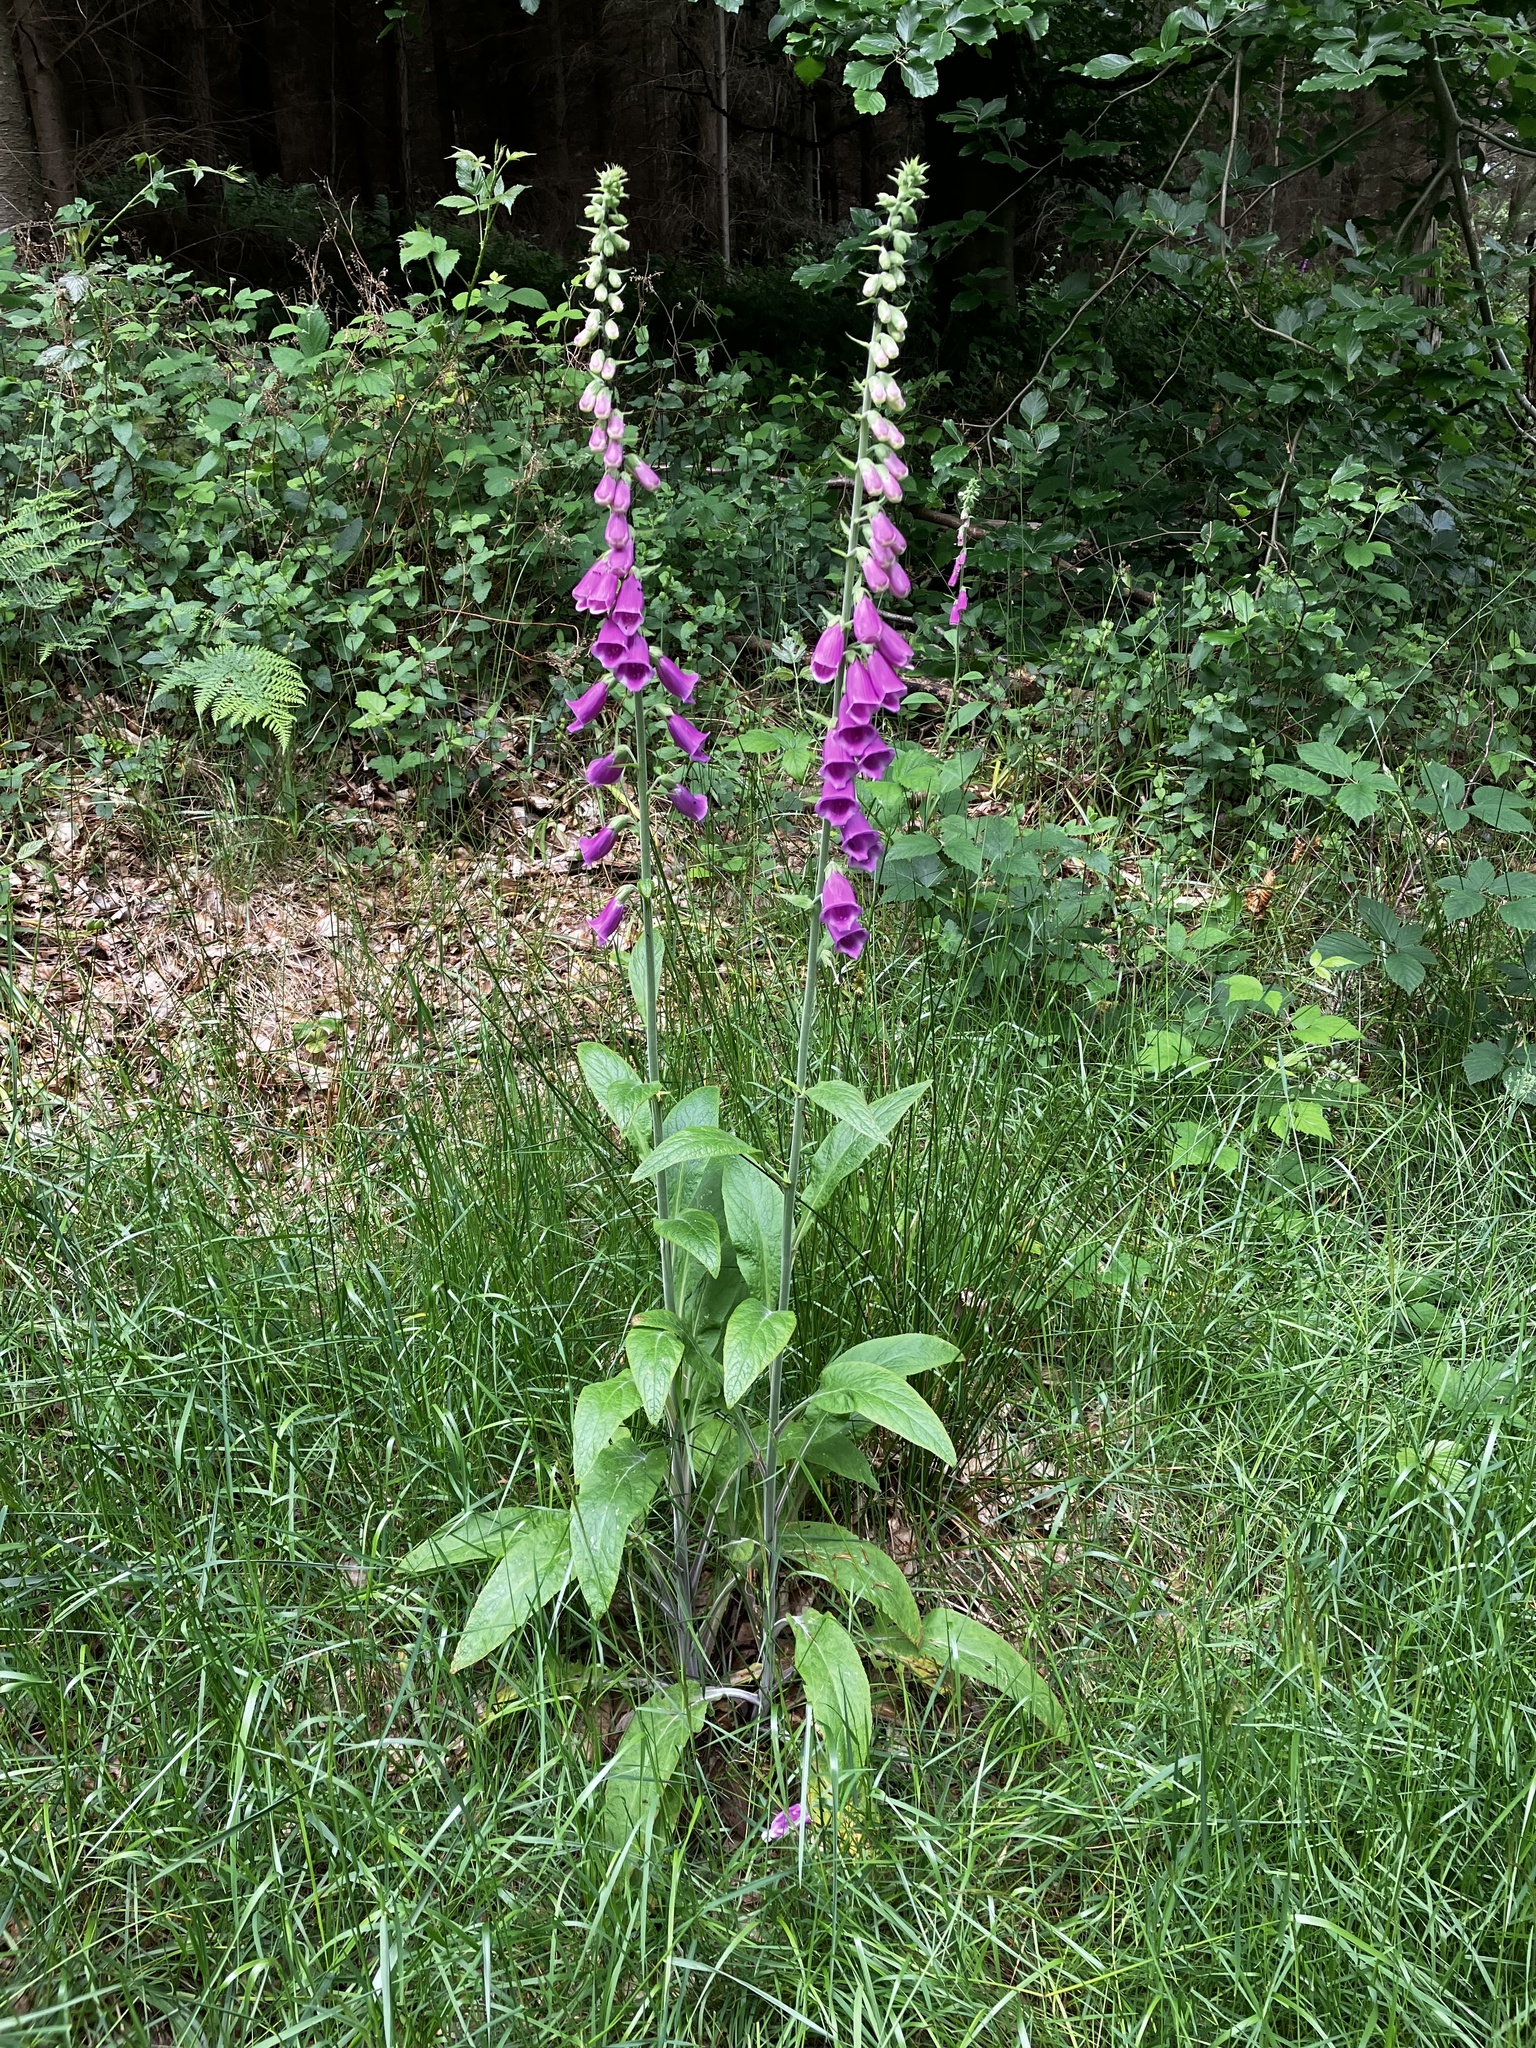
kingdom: Plantae
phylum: Tracheophyta
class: Magnoliopsida
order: Lamiales
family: Plantaginaceae
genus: Digitalis
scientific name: Digitalis purpurea
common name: Foxglove
